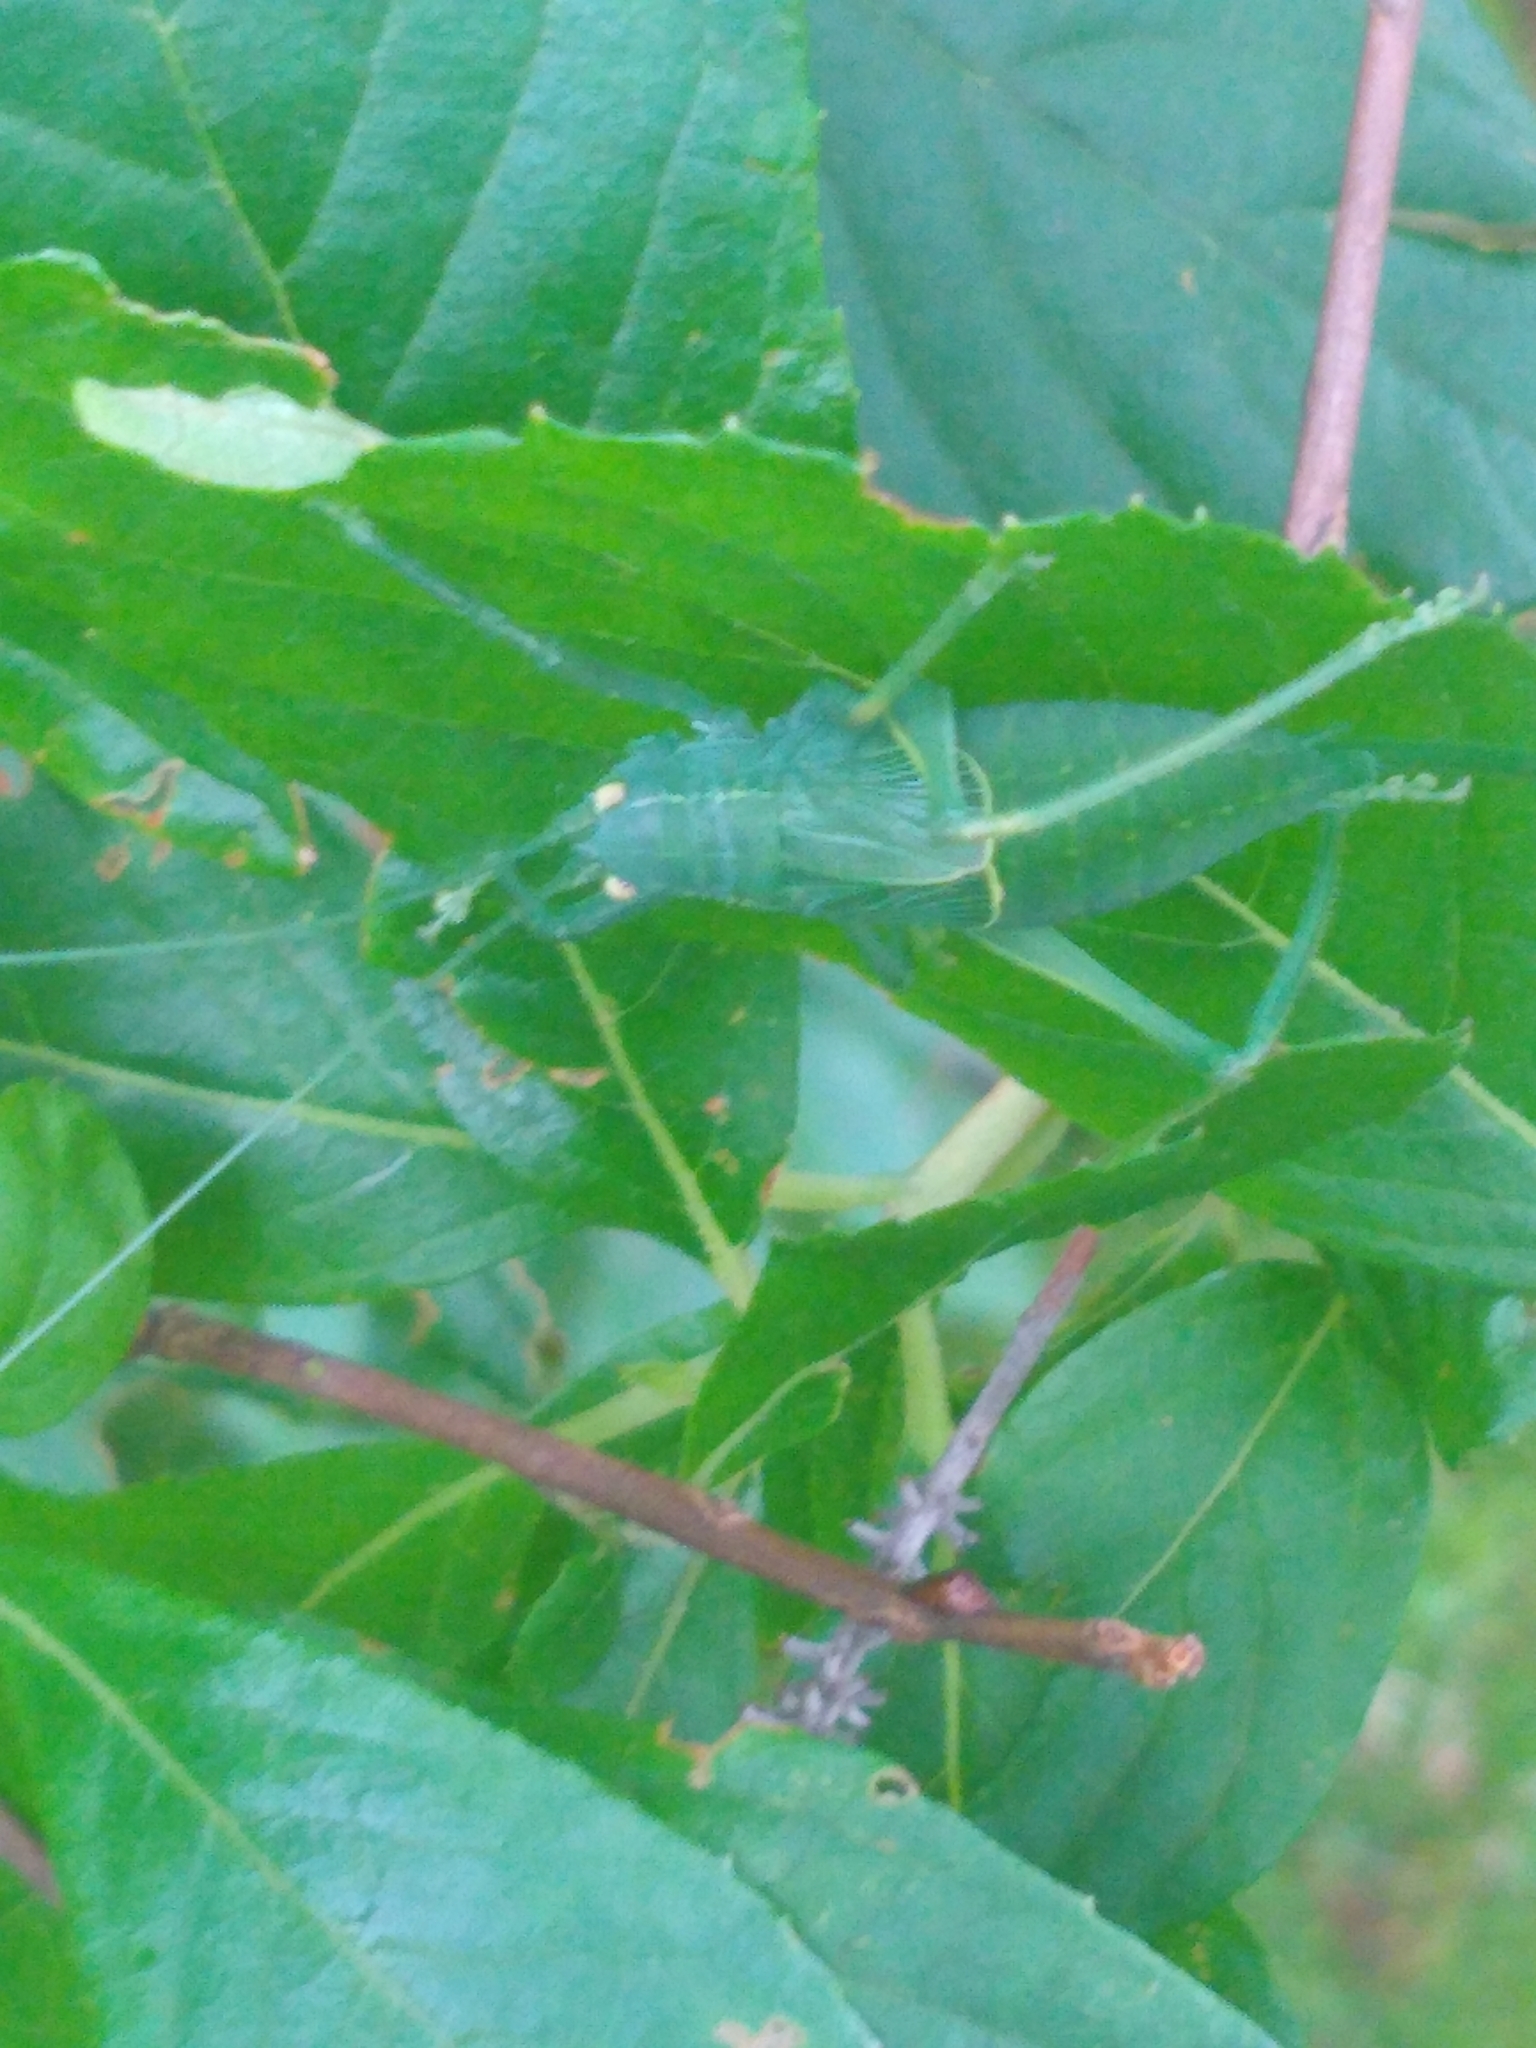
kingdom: Animalia
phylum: Arthropoda
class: Insecta
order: Orthoptera
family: Tettigoniidae
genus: Pterophylla
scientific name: Pterophylla camellifolia
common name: Common true katydid
